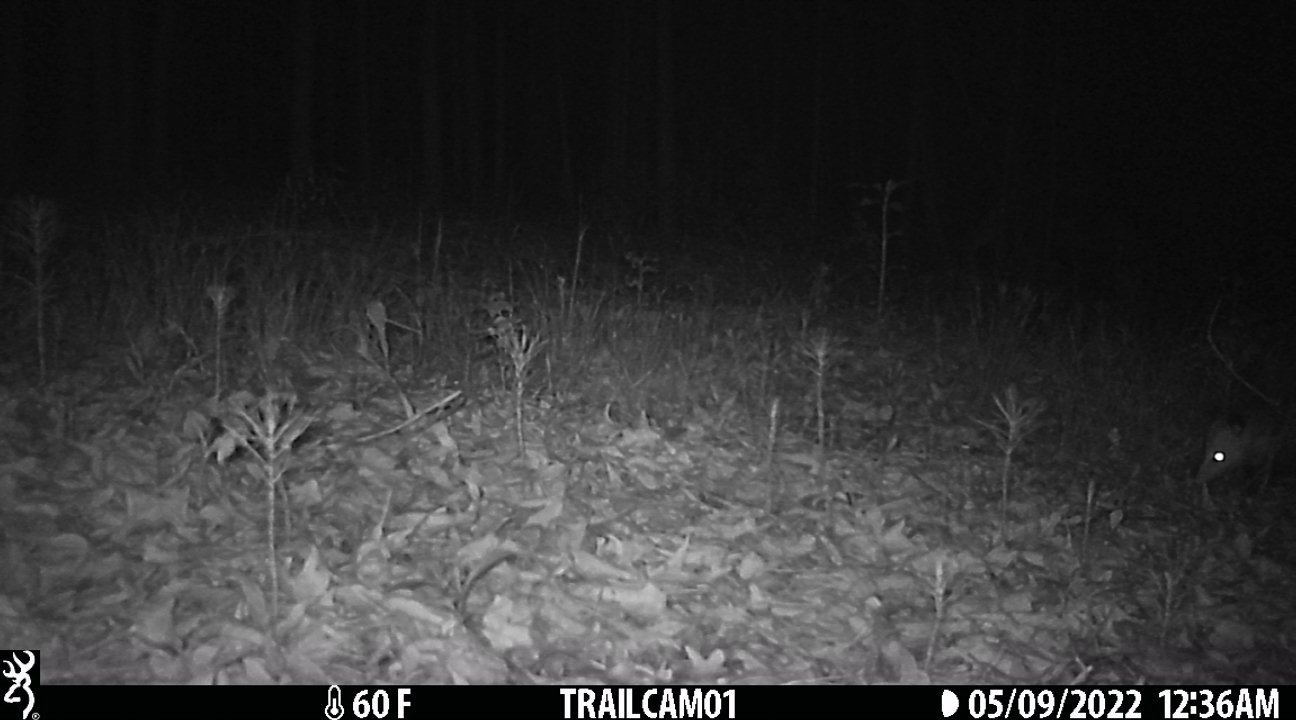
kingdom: Animalia
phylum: Chordata
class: Mammalia
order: Didelphimorphia
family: Didelphidae
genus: Didelphis
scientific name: Didelphis virginiana
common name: Virginia opossum
